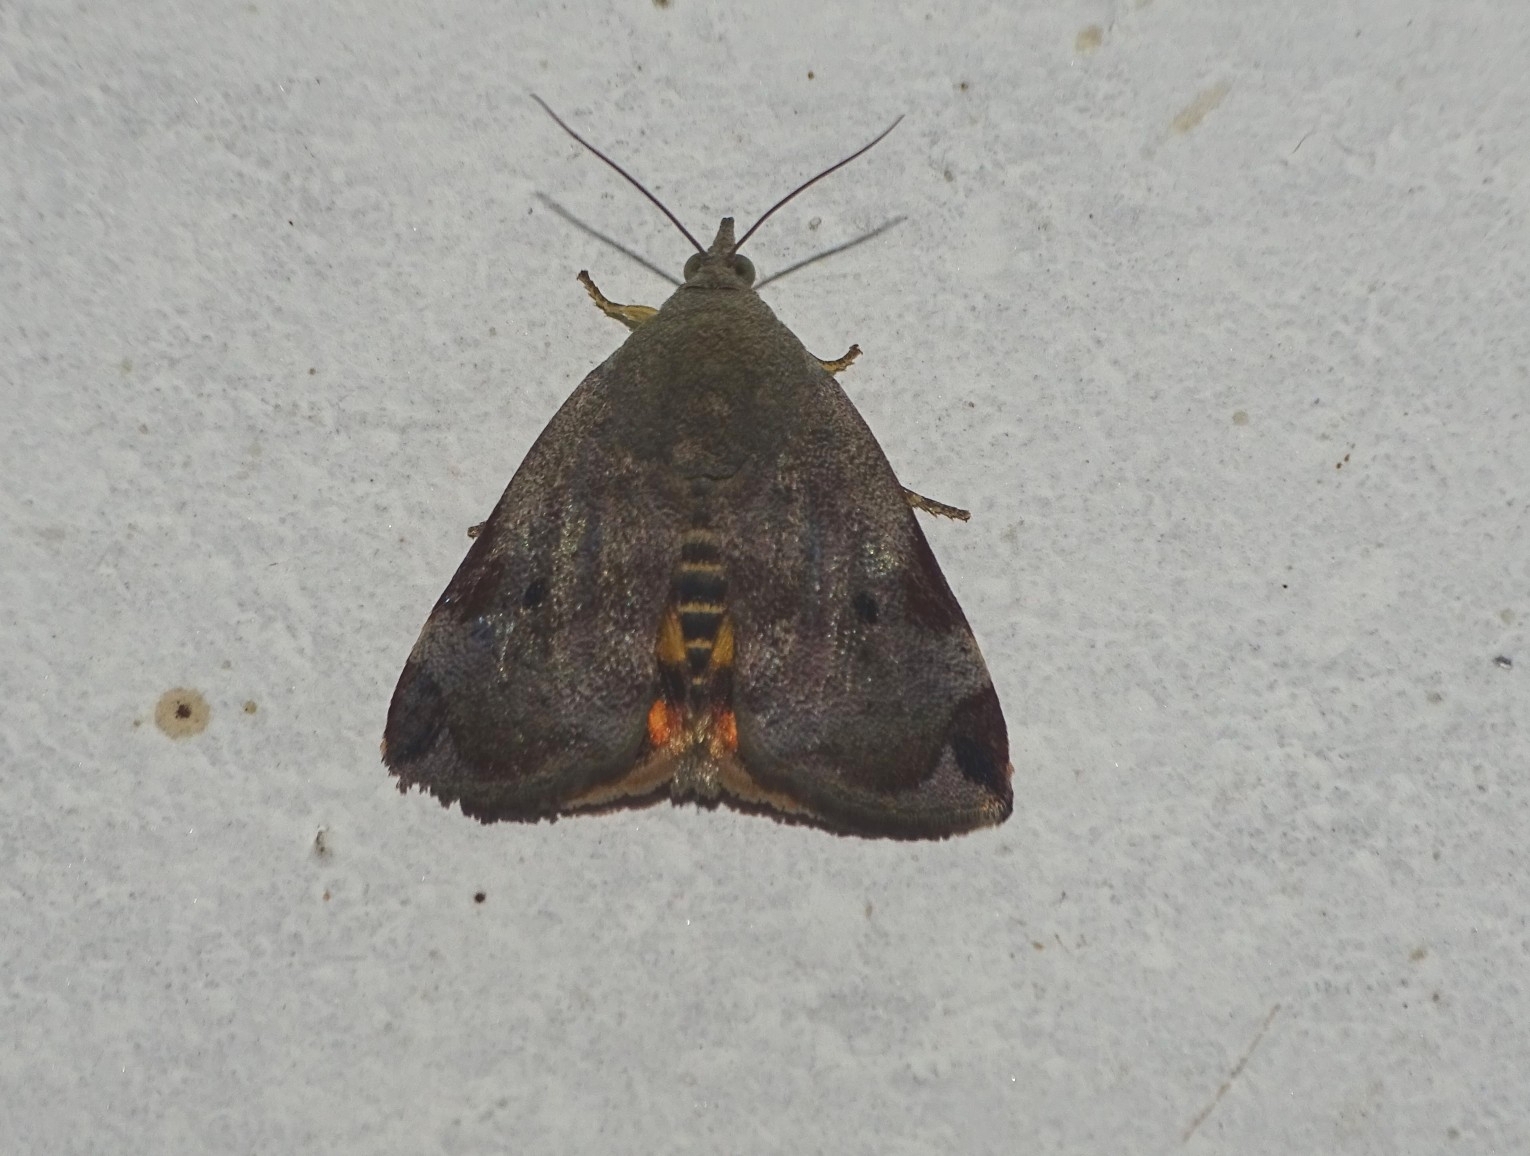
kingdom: Animalia
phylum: Arthropoda
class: Insecta
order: Lepidoptera
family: Hyblaeidae
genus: Hyblaea
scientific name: Hyblaea puera
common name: Teak defoliator moth
